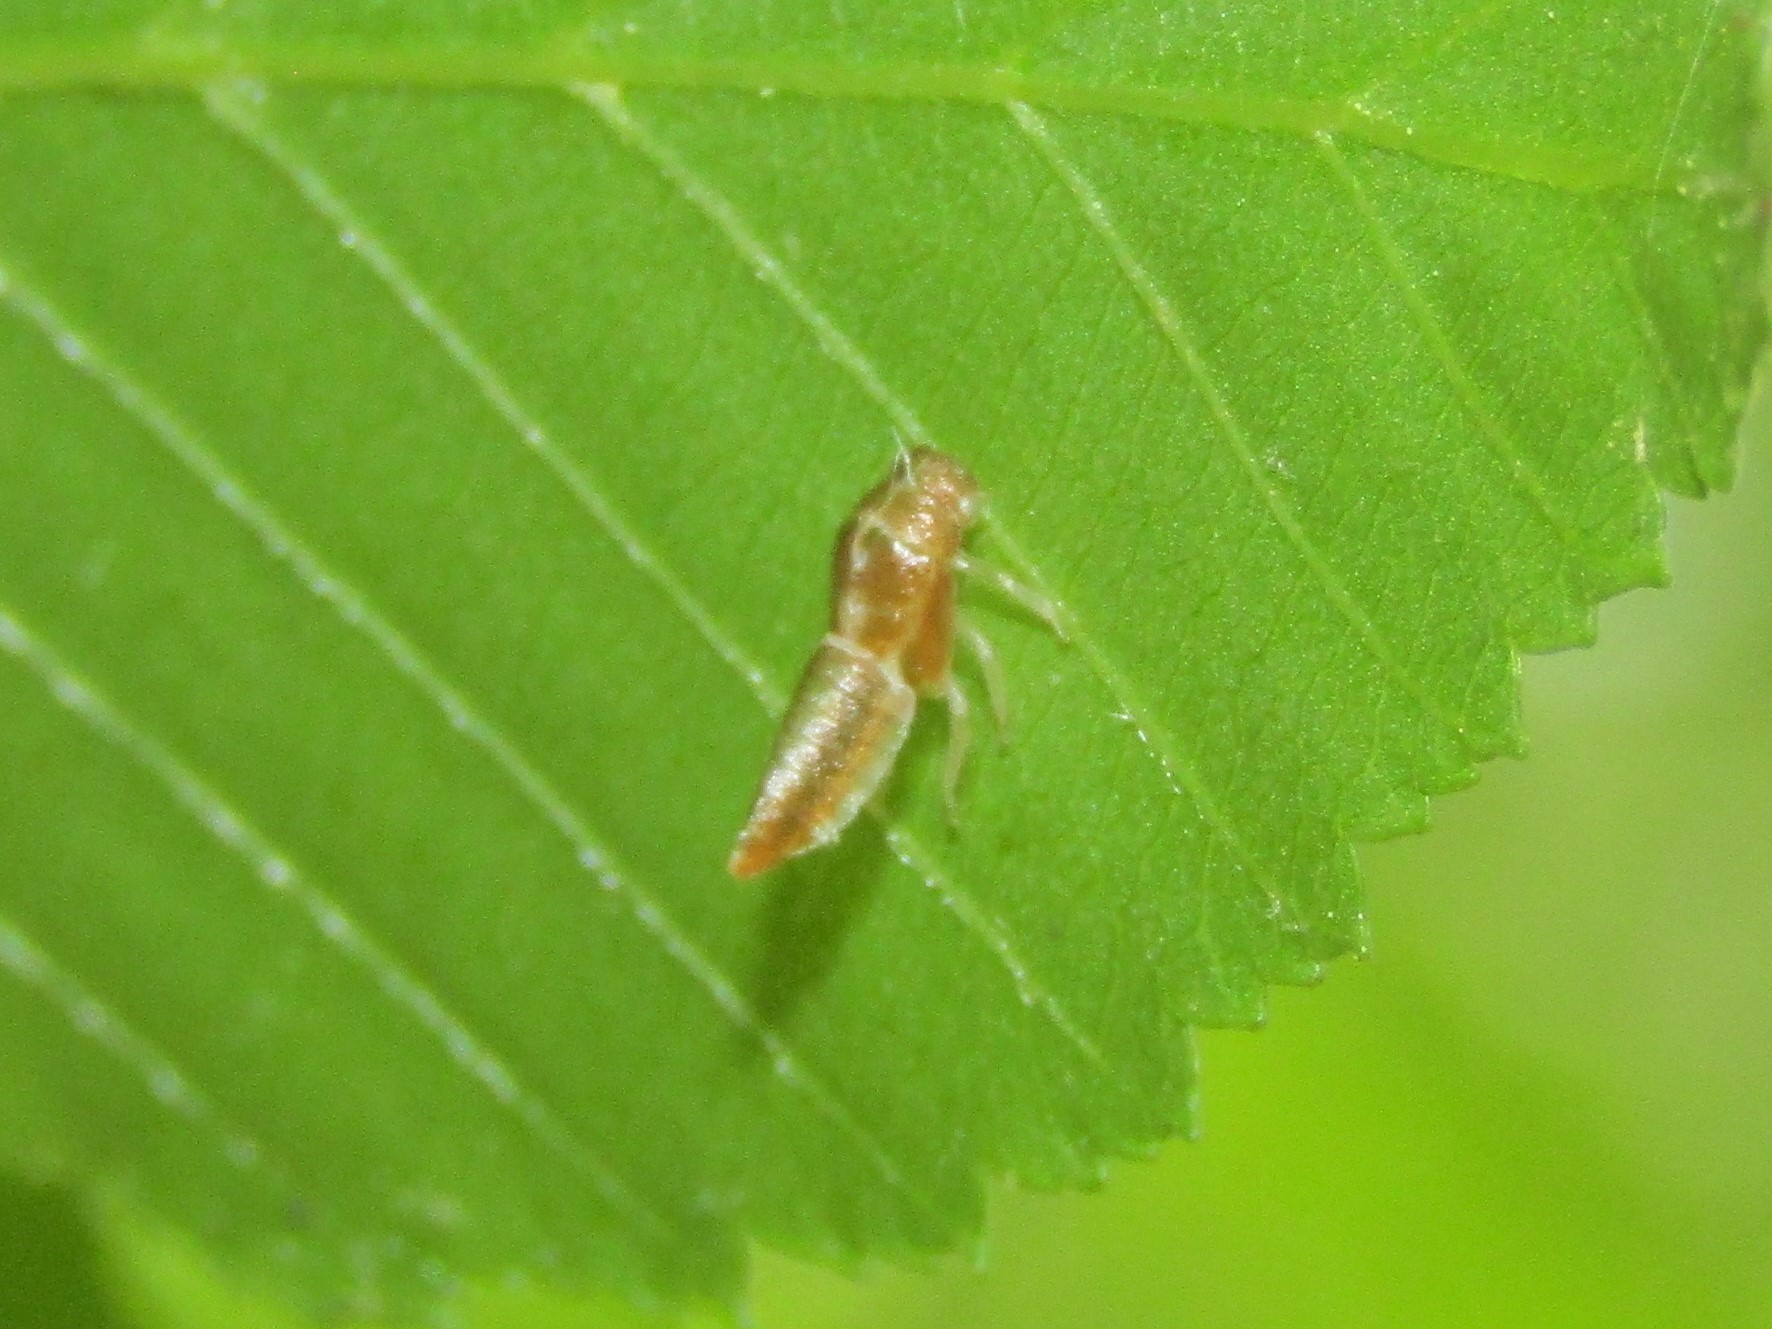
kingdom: Animalia
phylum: Arthropoda
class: Insecta
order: Hemiptera
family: Cicadellidae
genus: Oncopsis
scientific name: Oncopsis nigrinasi
